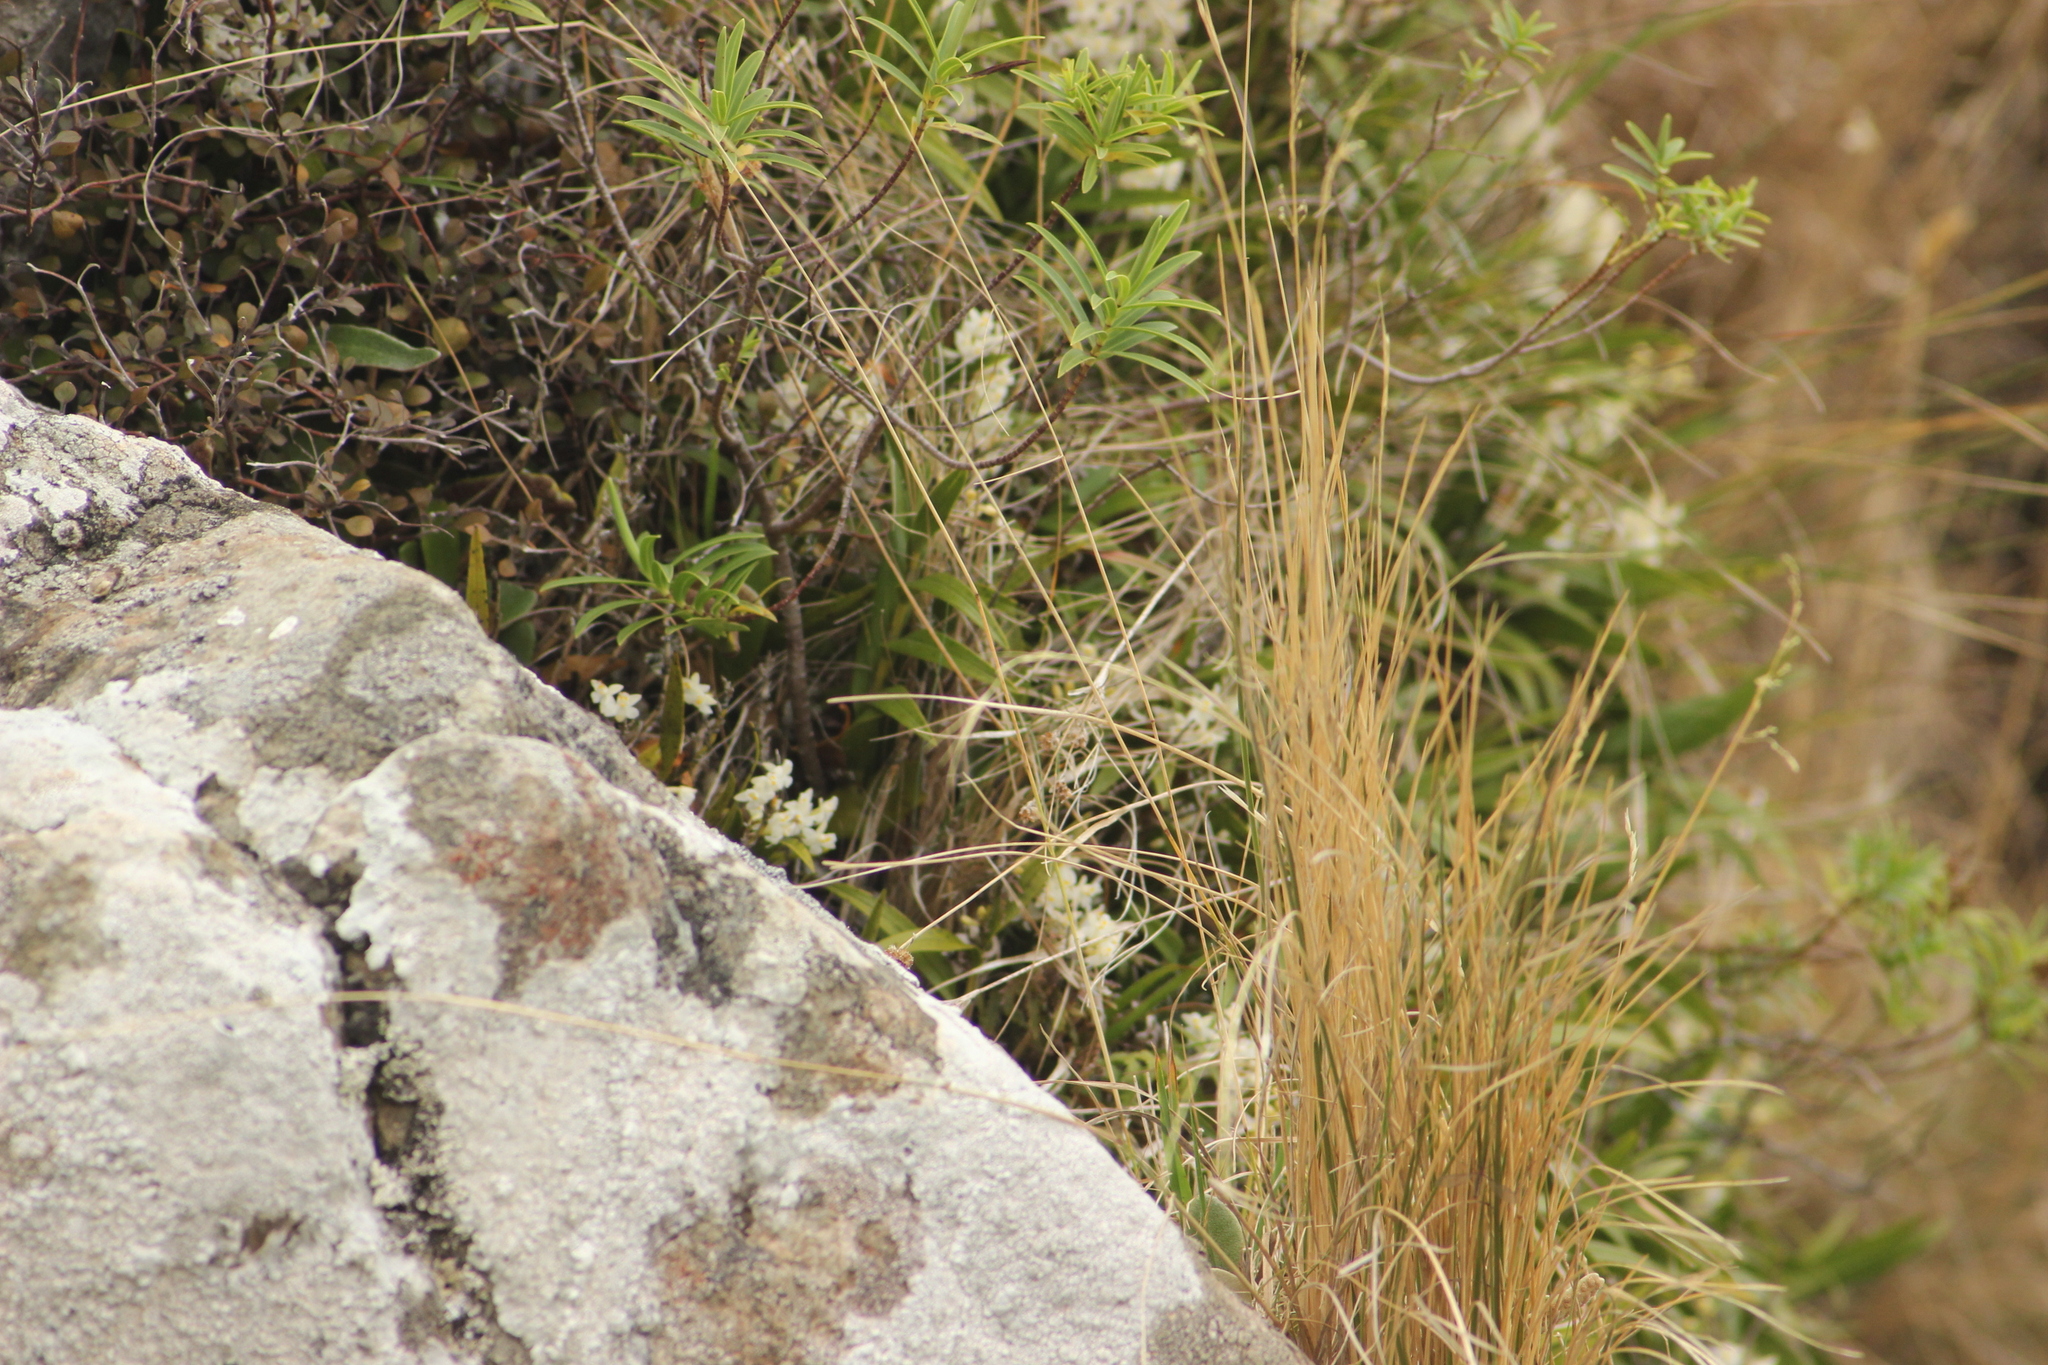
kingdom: Plantae
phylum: Tracheophyta
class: Liliopsida
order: Asparagales
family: Orchidaceae
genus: Earina
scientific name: Earina autumnalis
